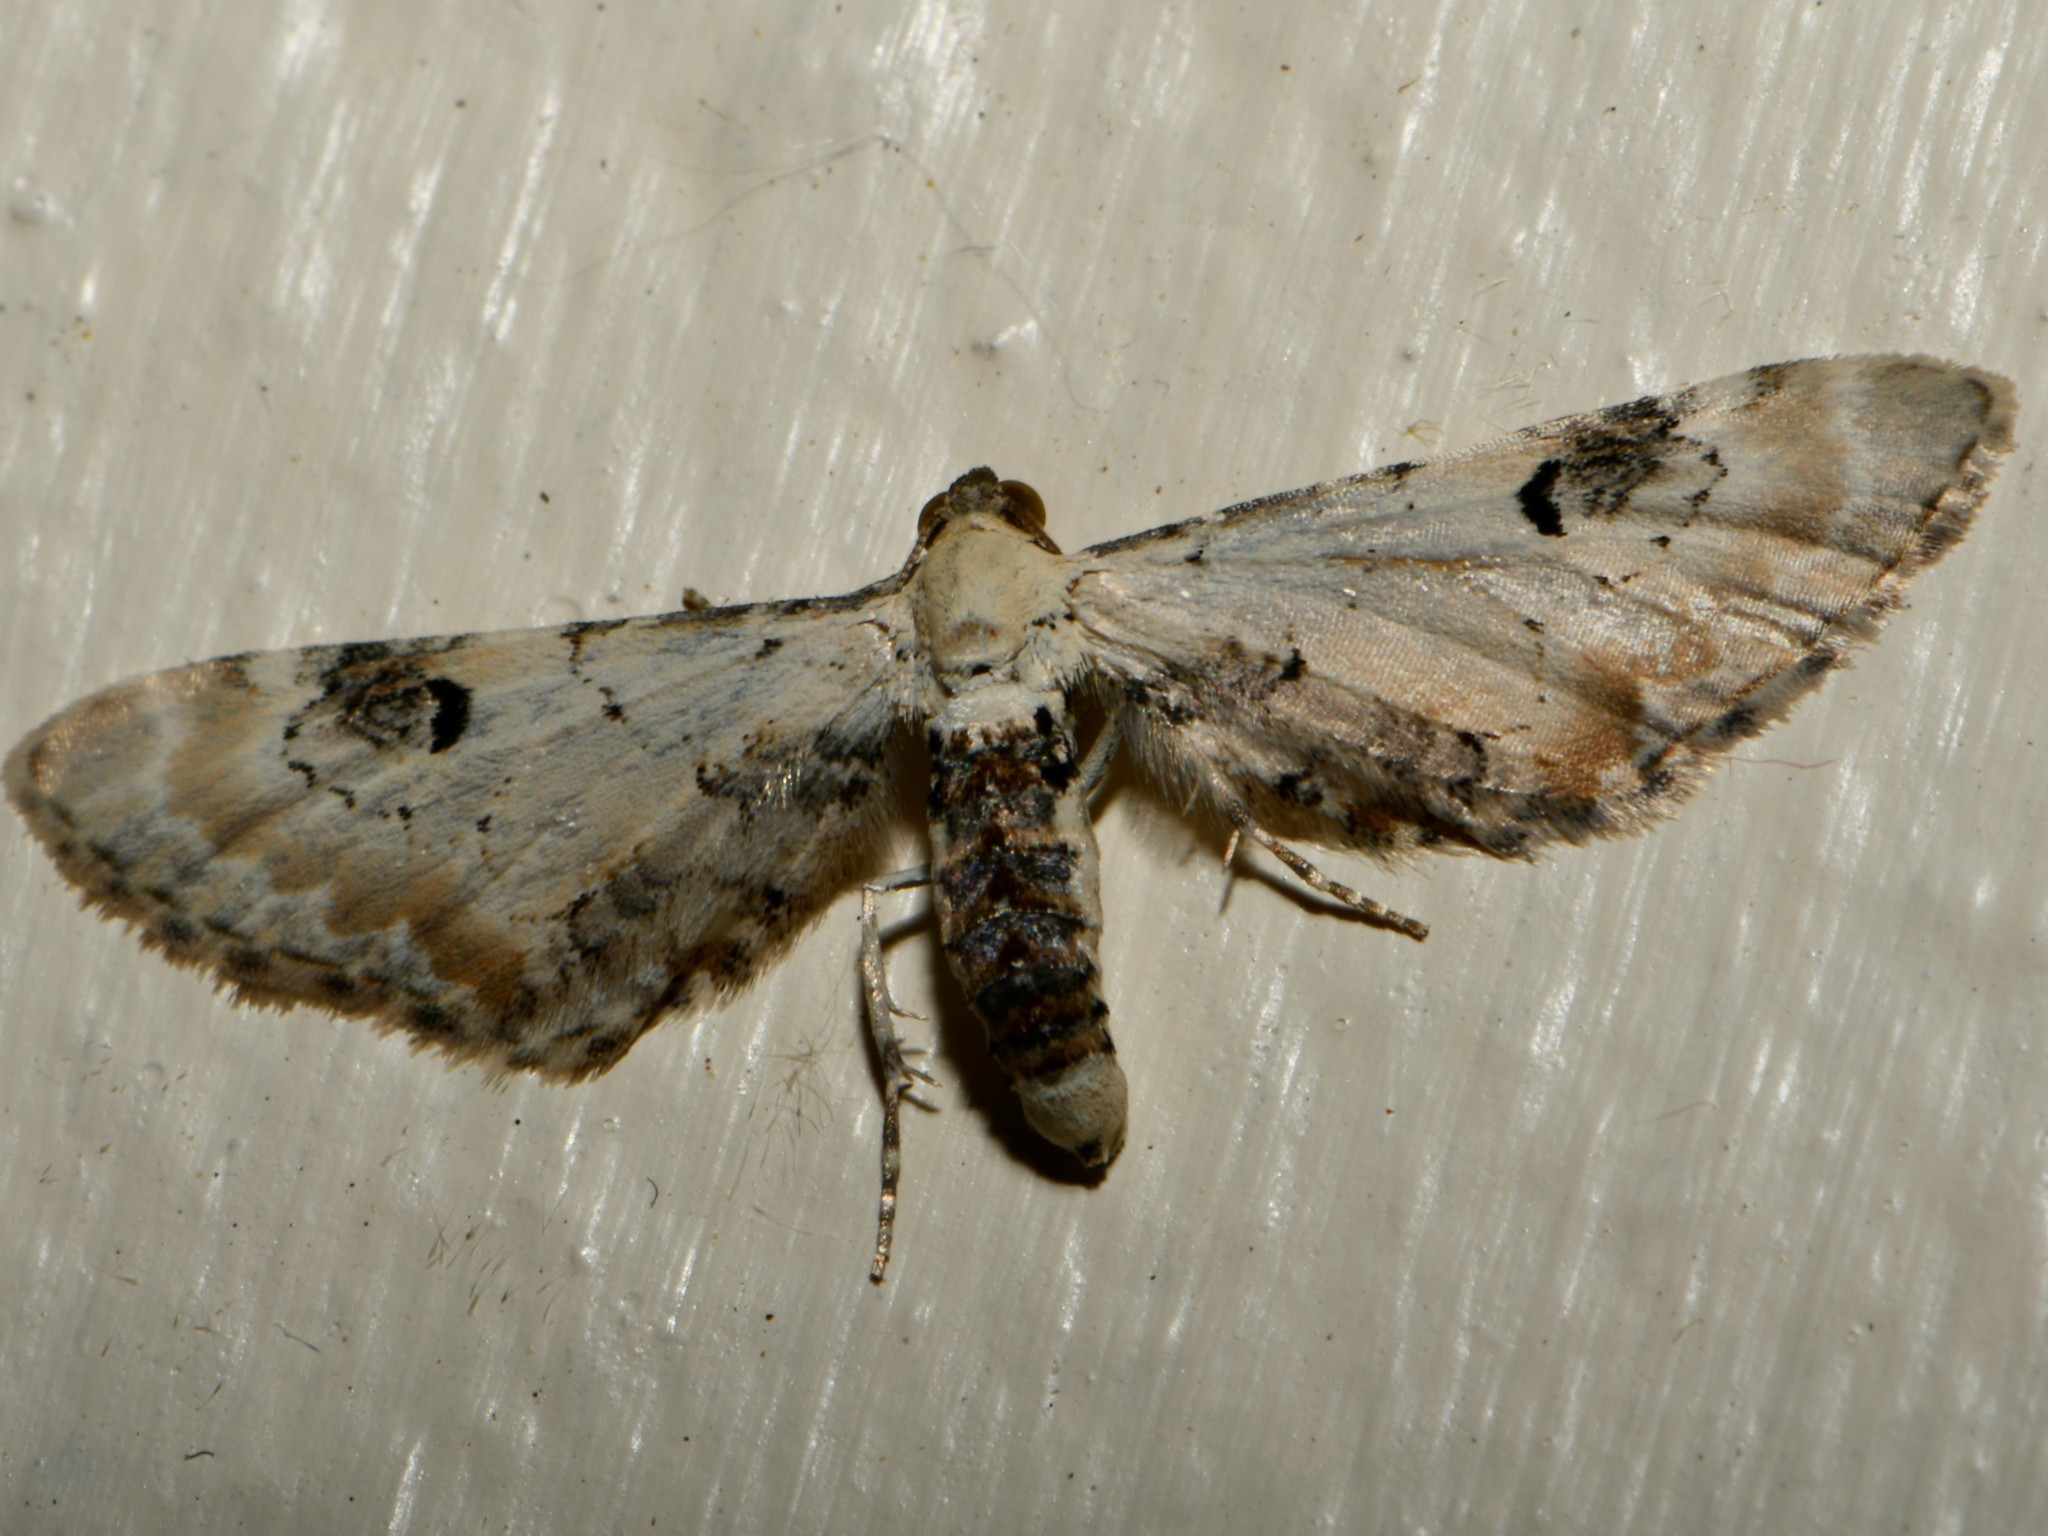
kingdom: Animalia
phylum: Arthropoda
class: Insecta
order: Lepidoptera
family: Geometridae
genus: Eupithecia
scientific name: Eupithecia centaureata
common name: Lime-speck pug
